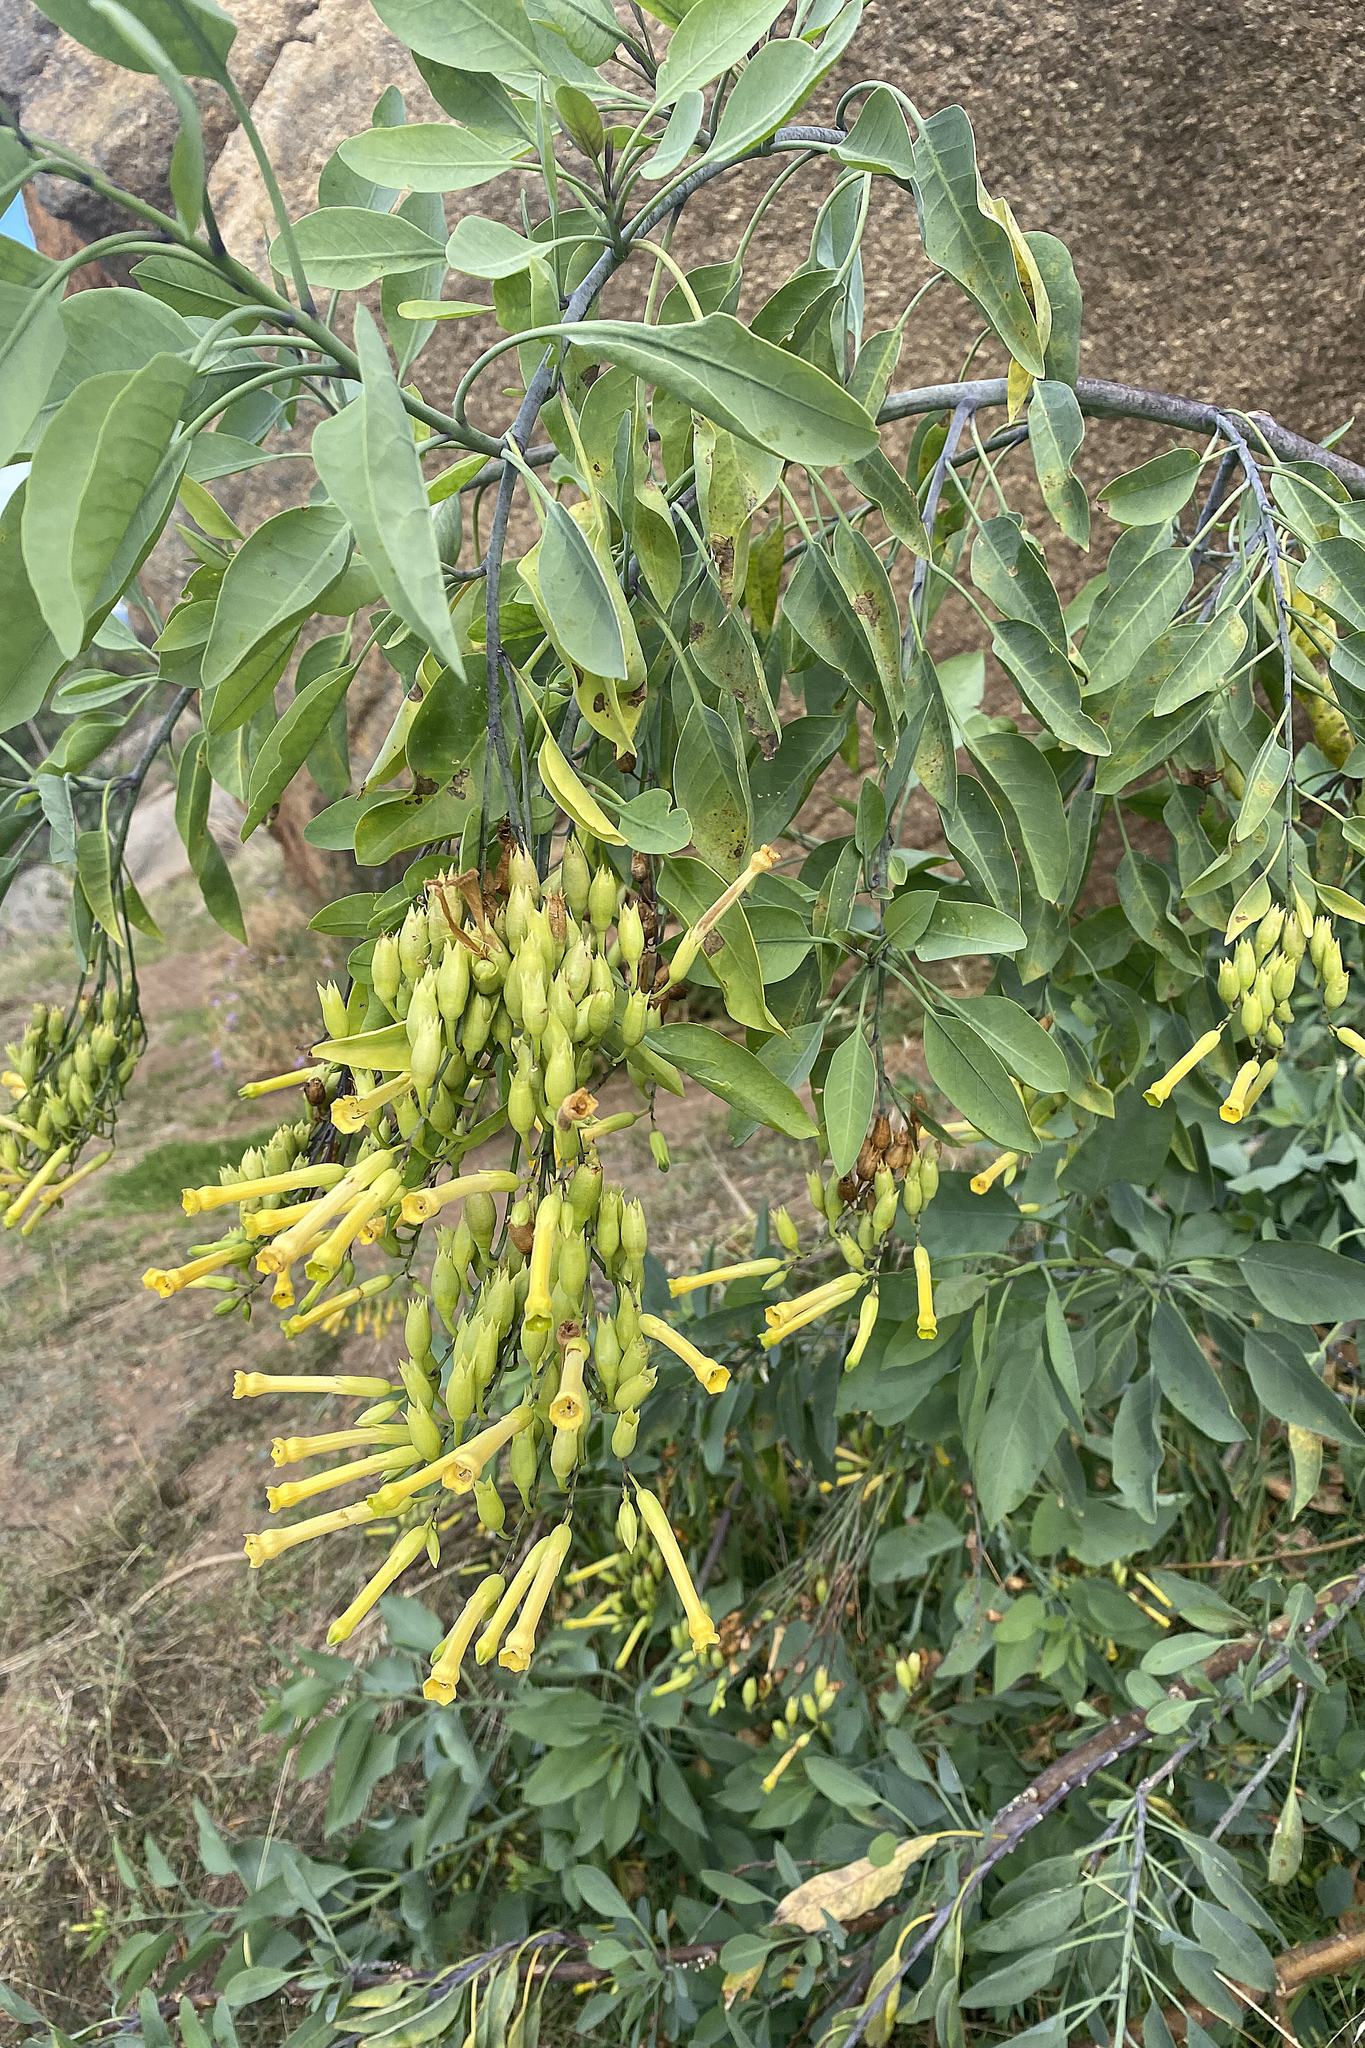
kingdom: Plantae
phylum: Tracheophyta
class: Magnoliopsida
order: Solanales
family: Solanaceae
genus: Nicotiana
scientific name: Nicotiana glauca
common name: Tree tobacco
